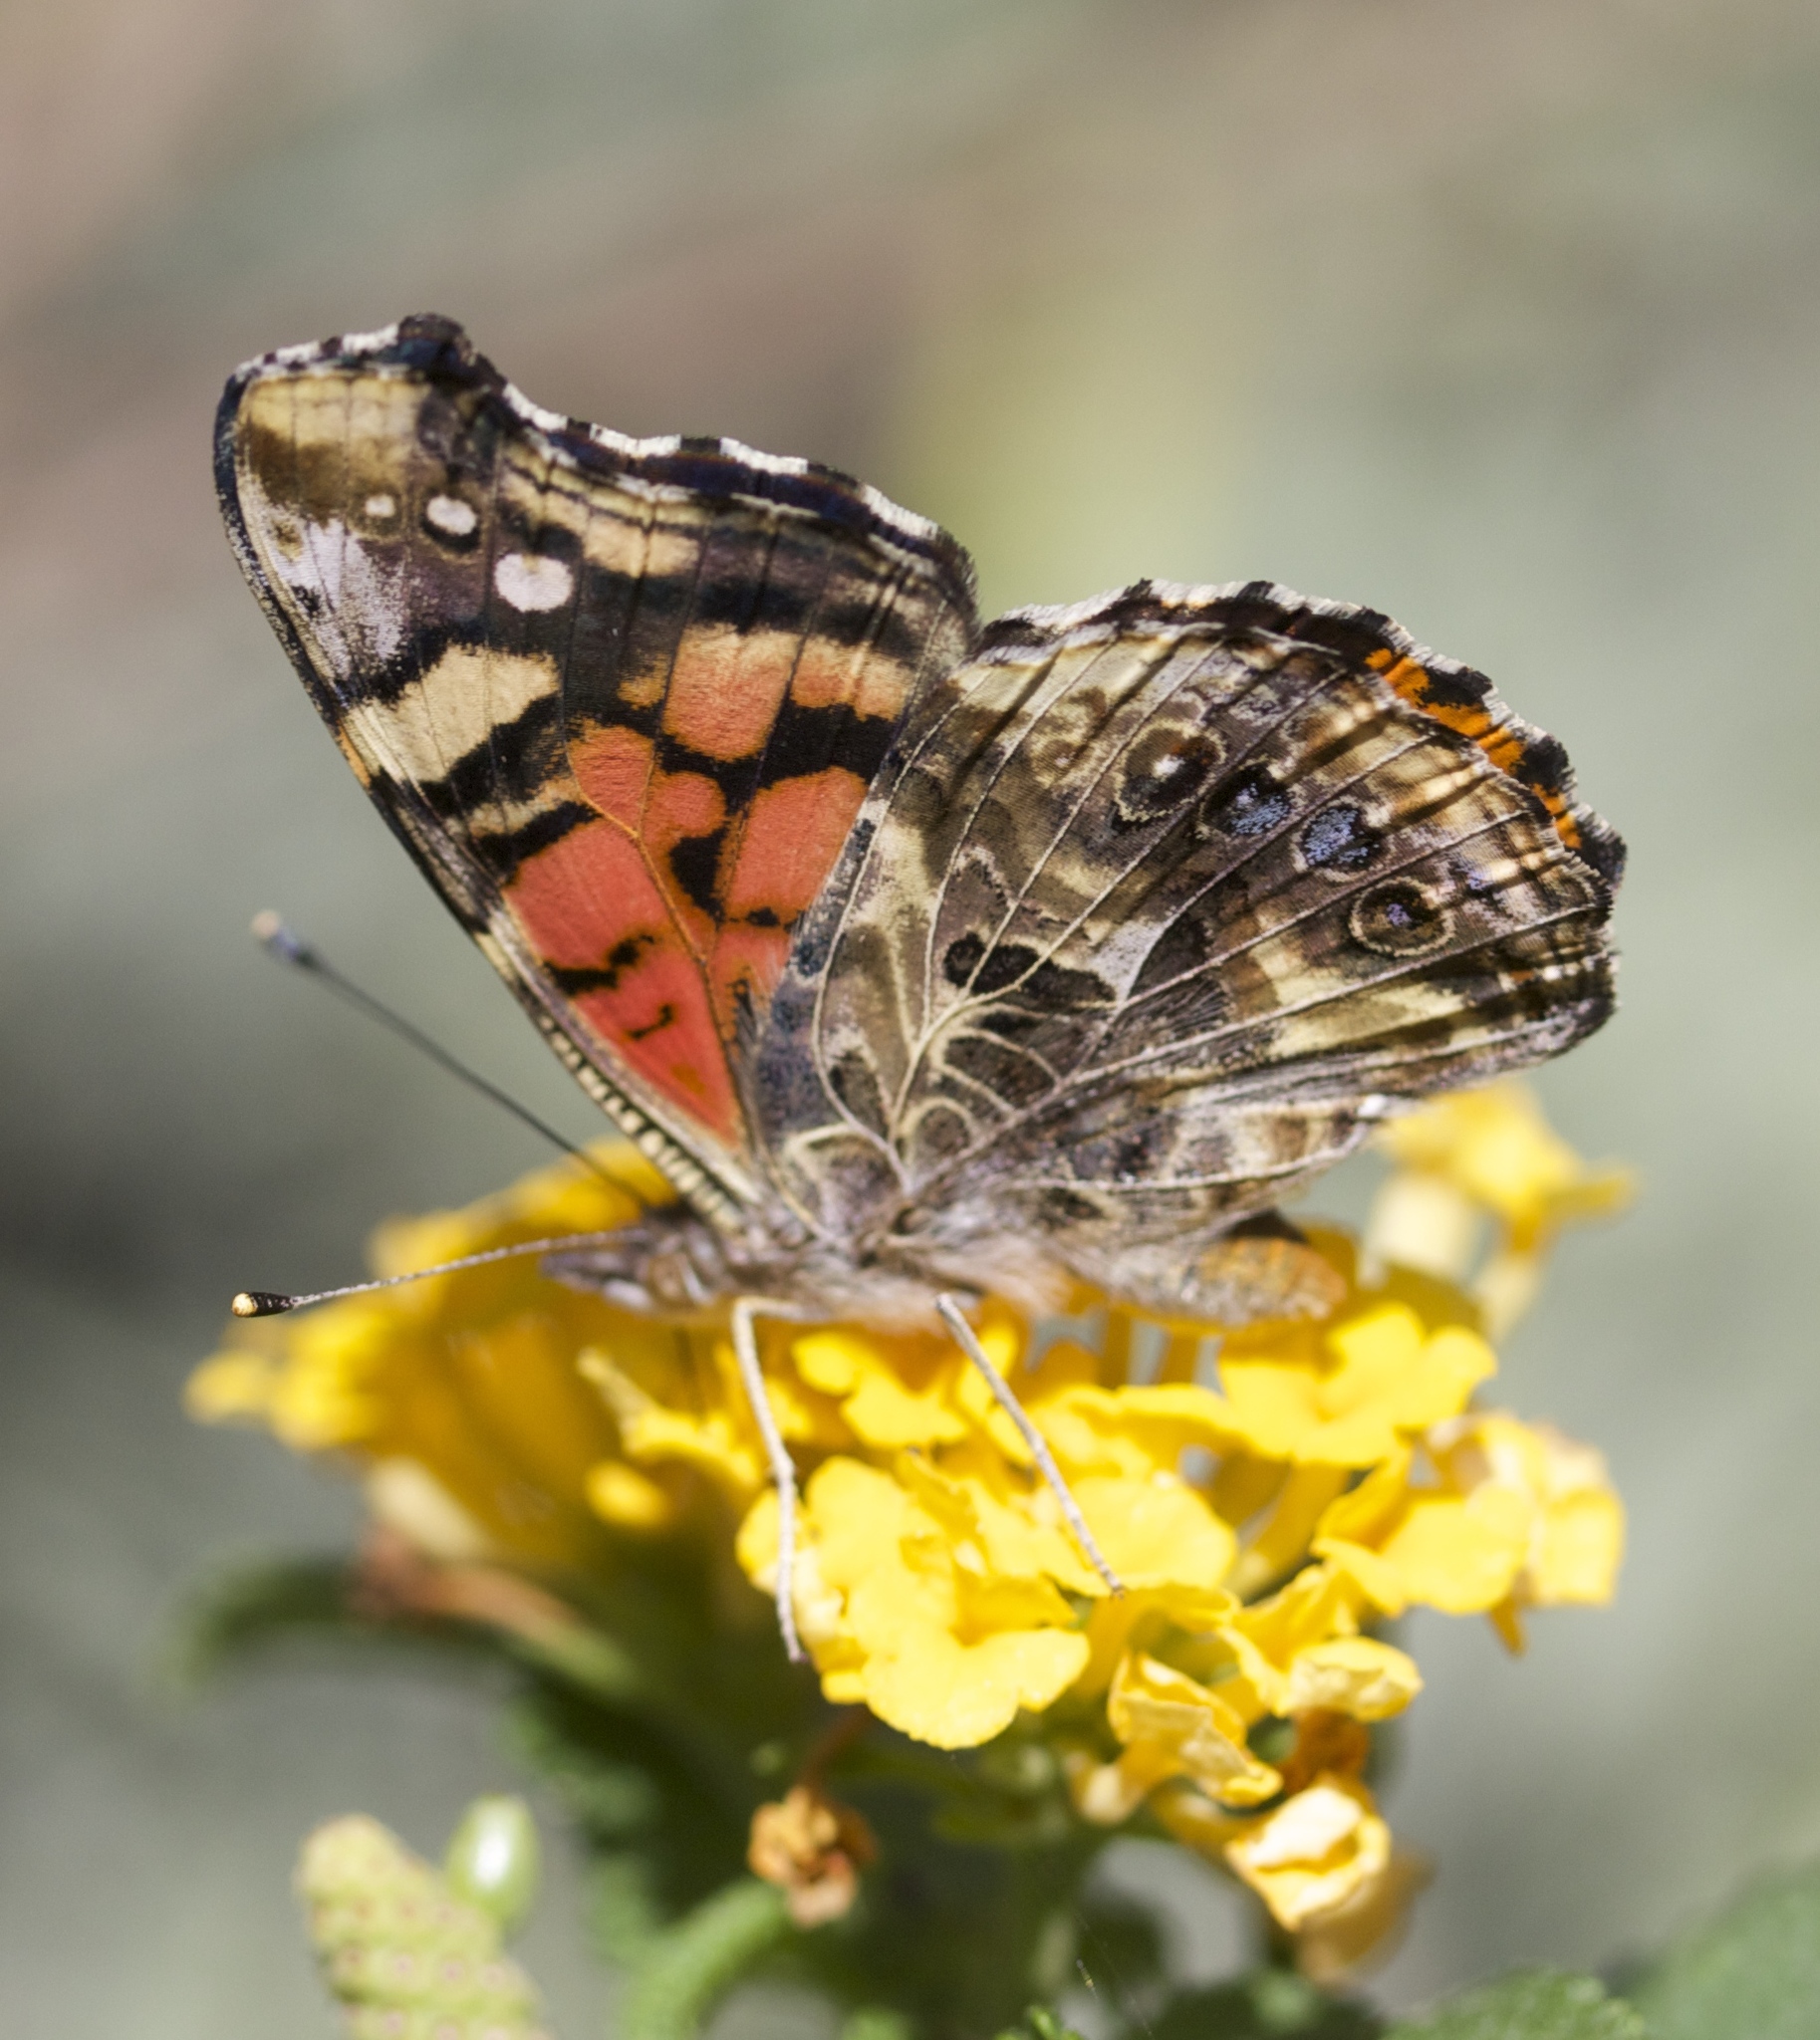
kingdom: Animalia
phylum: Arthropoda
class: Insecta
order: Lepidoptera
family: Nymphalidae
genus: Vanessa
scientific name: Vanessa annabella
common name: West coast lady
